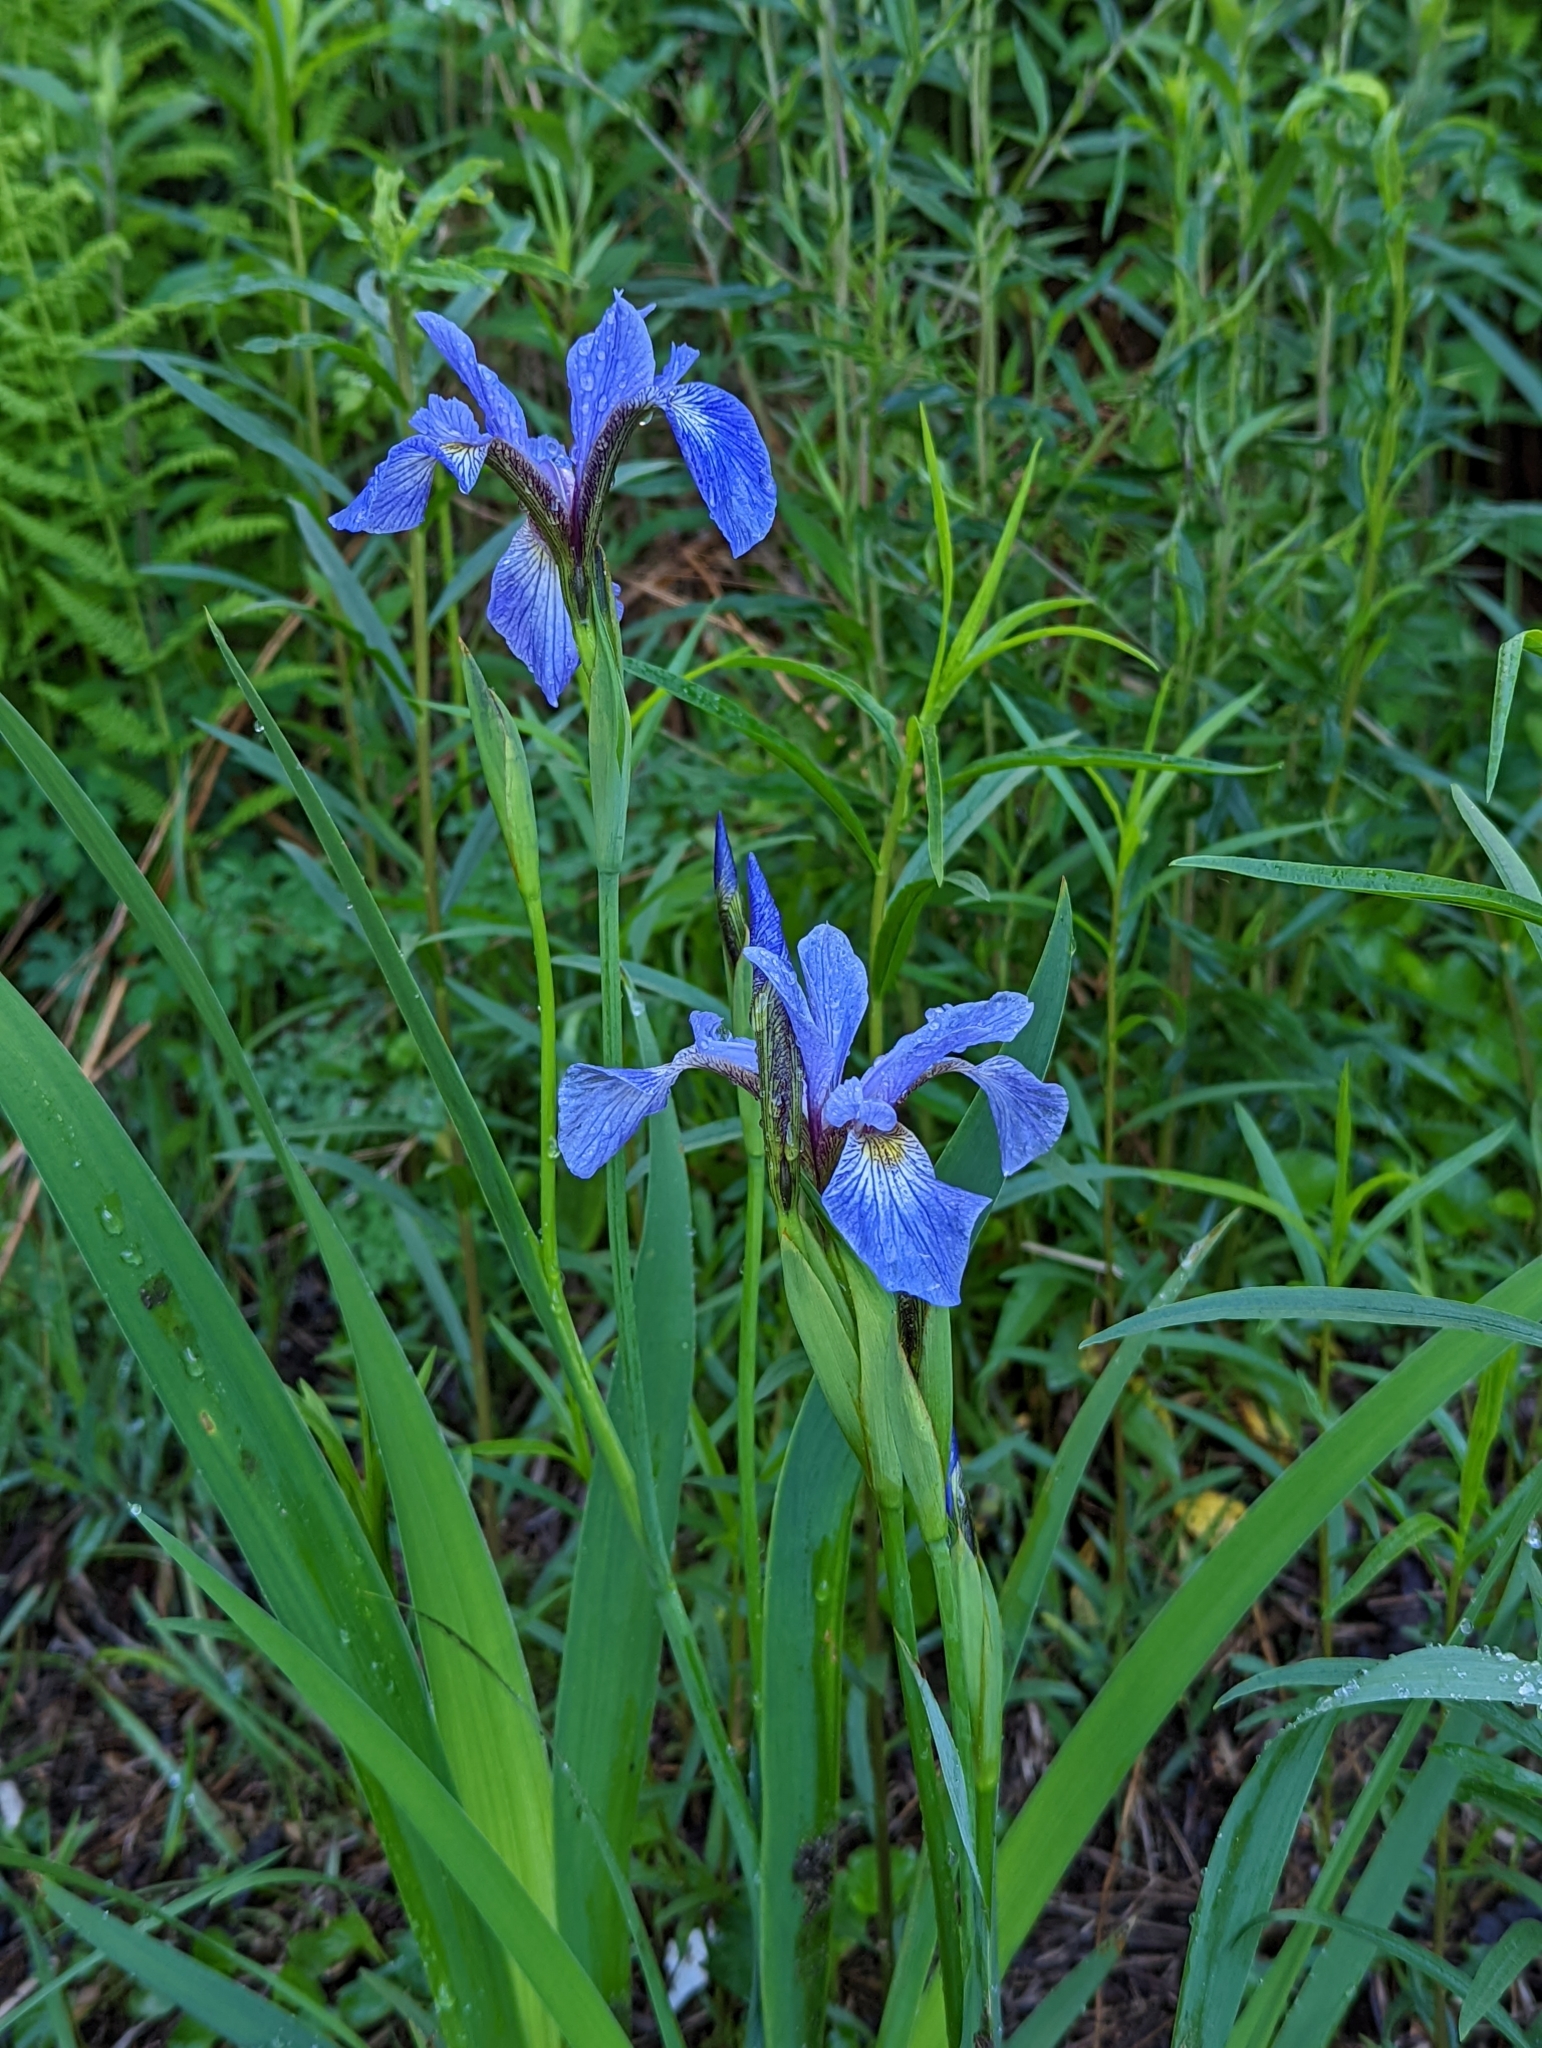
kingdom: Plantae
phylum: Tracheophyta
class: Liliopsida
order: Asparagales
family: Iridaceae
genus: Iris
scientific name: Iris versicolor
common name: Purple iris
